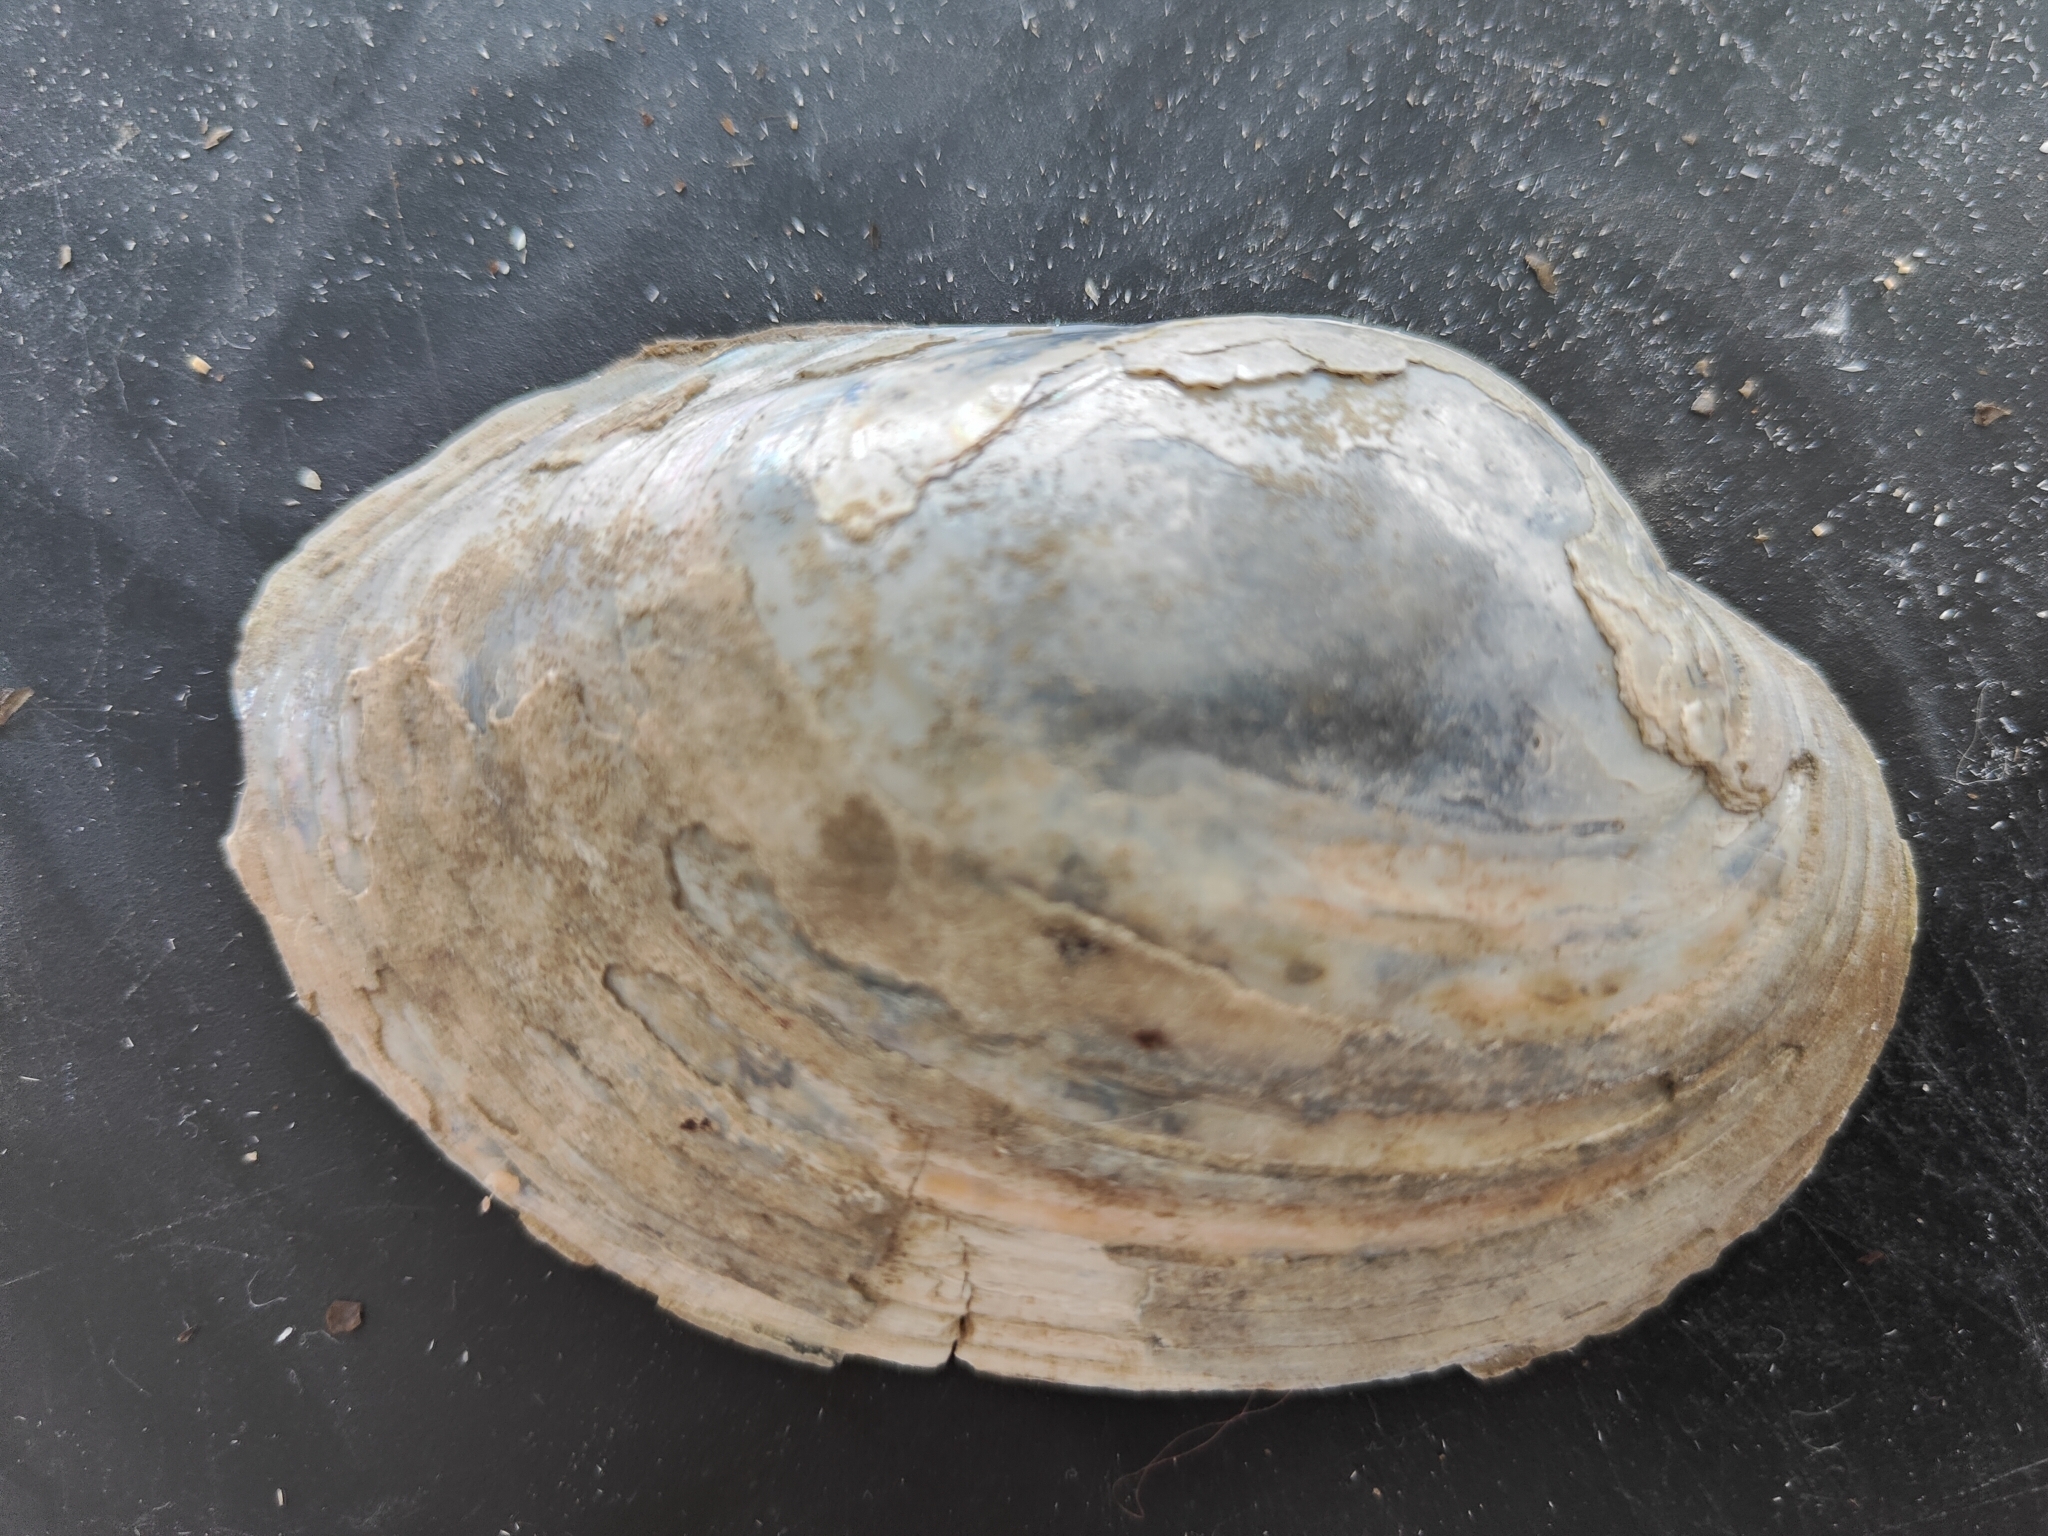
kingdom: Animalia
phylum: Mollusca
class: Bivalvia
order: Unionida
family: Unionidae
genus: Lampsilis
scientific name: Lampsilis cardium
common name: Plain pocketbook
